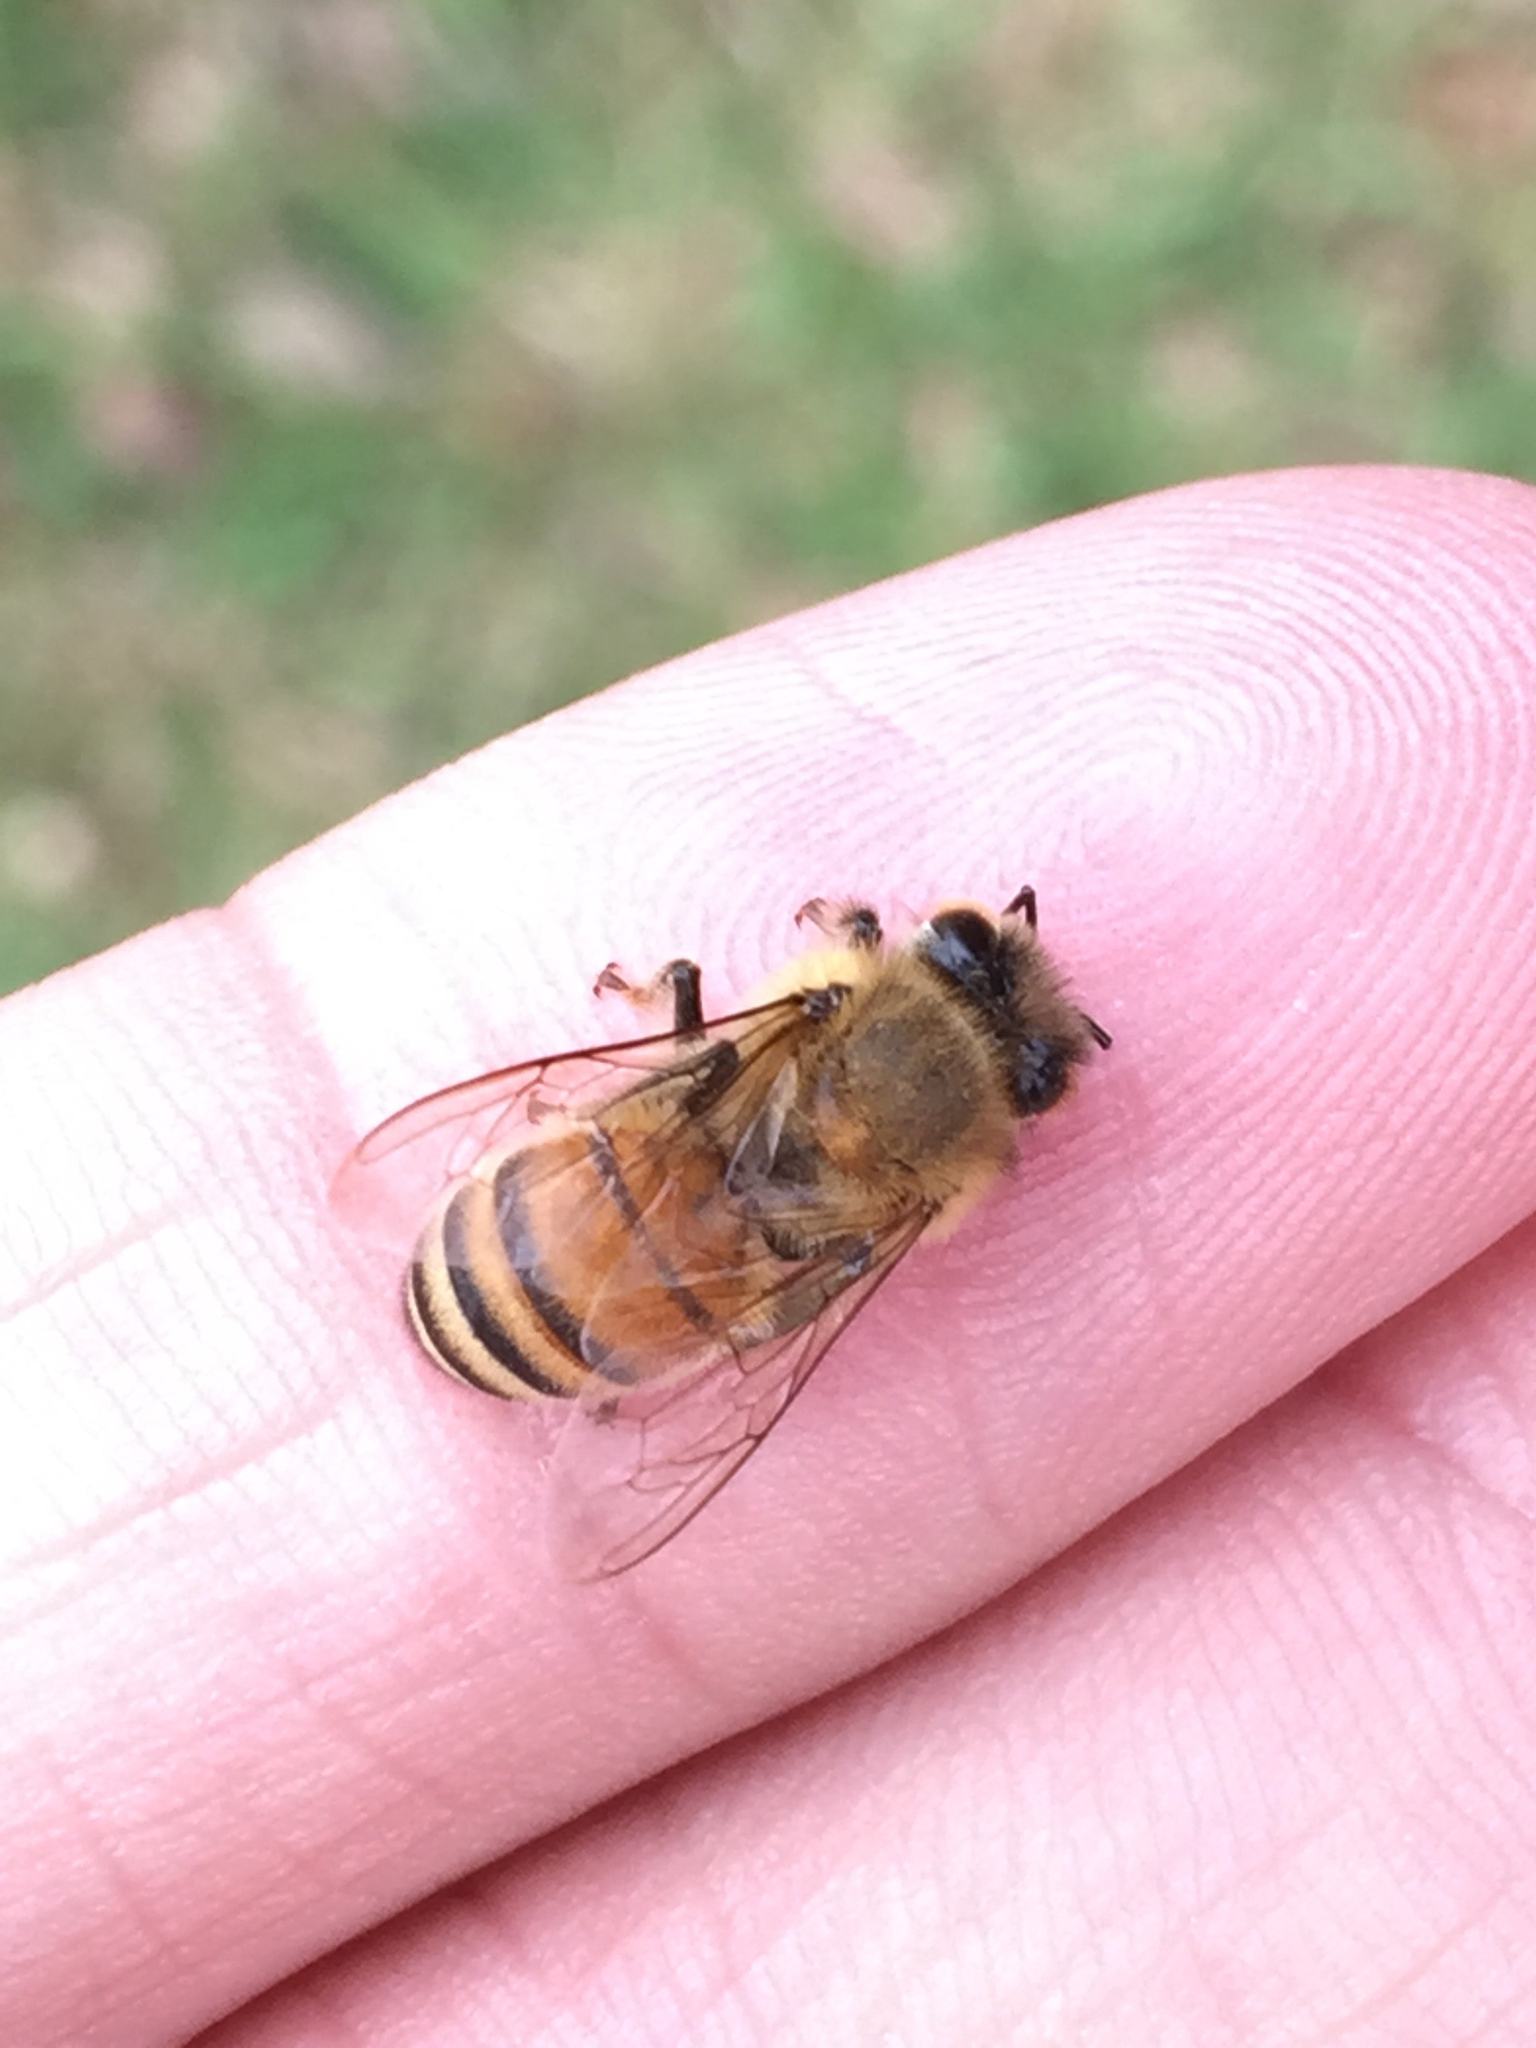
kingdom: Animalia
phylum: Arthropoda
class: Insecta
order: Hymenoptera
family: Apidae
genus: Apis
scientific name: Apis mellifera
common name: Honey bee
